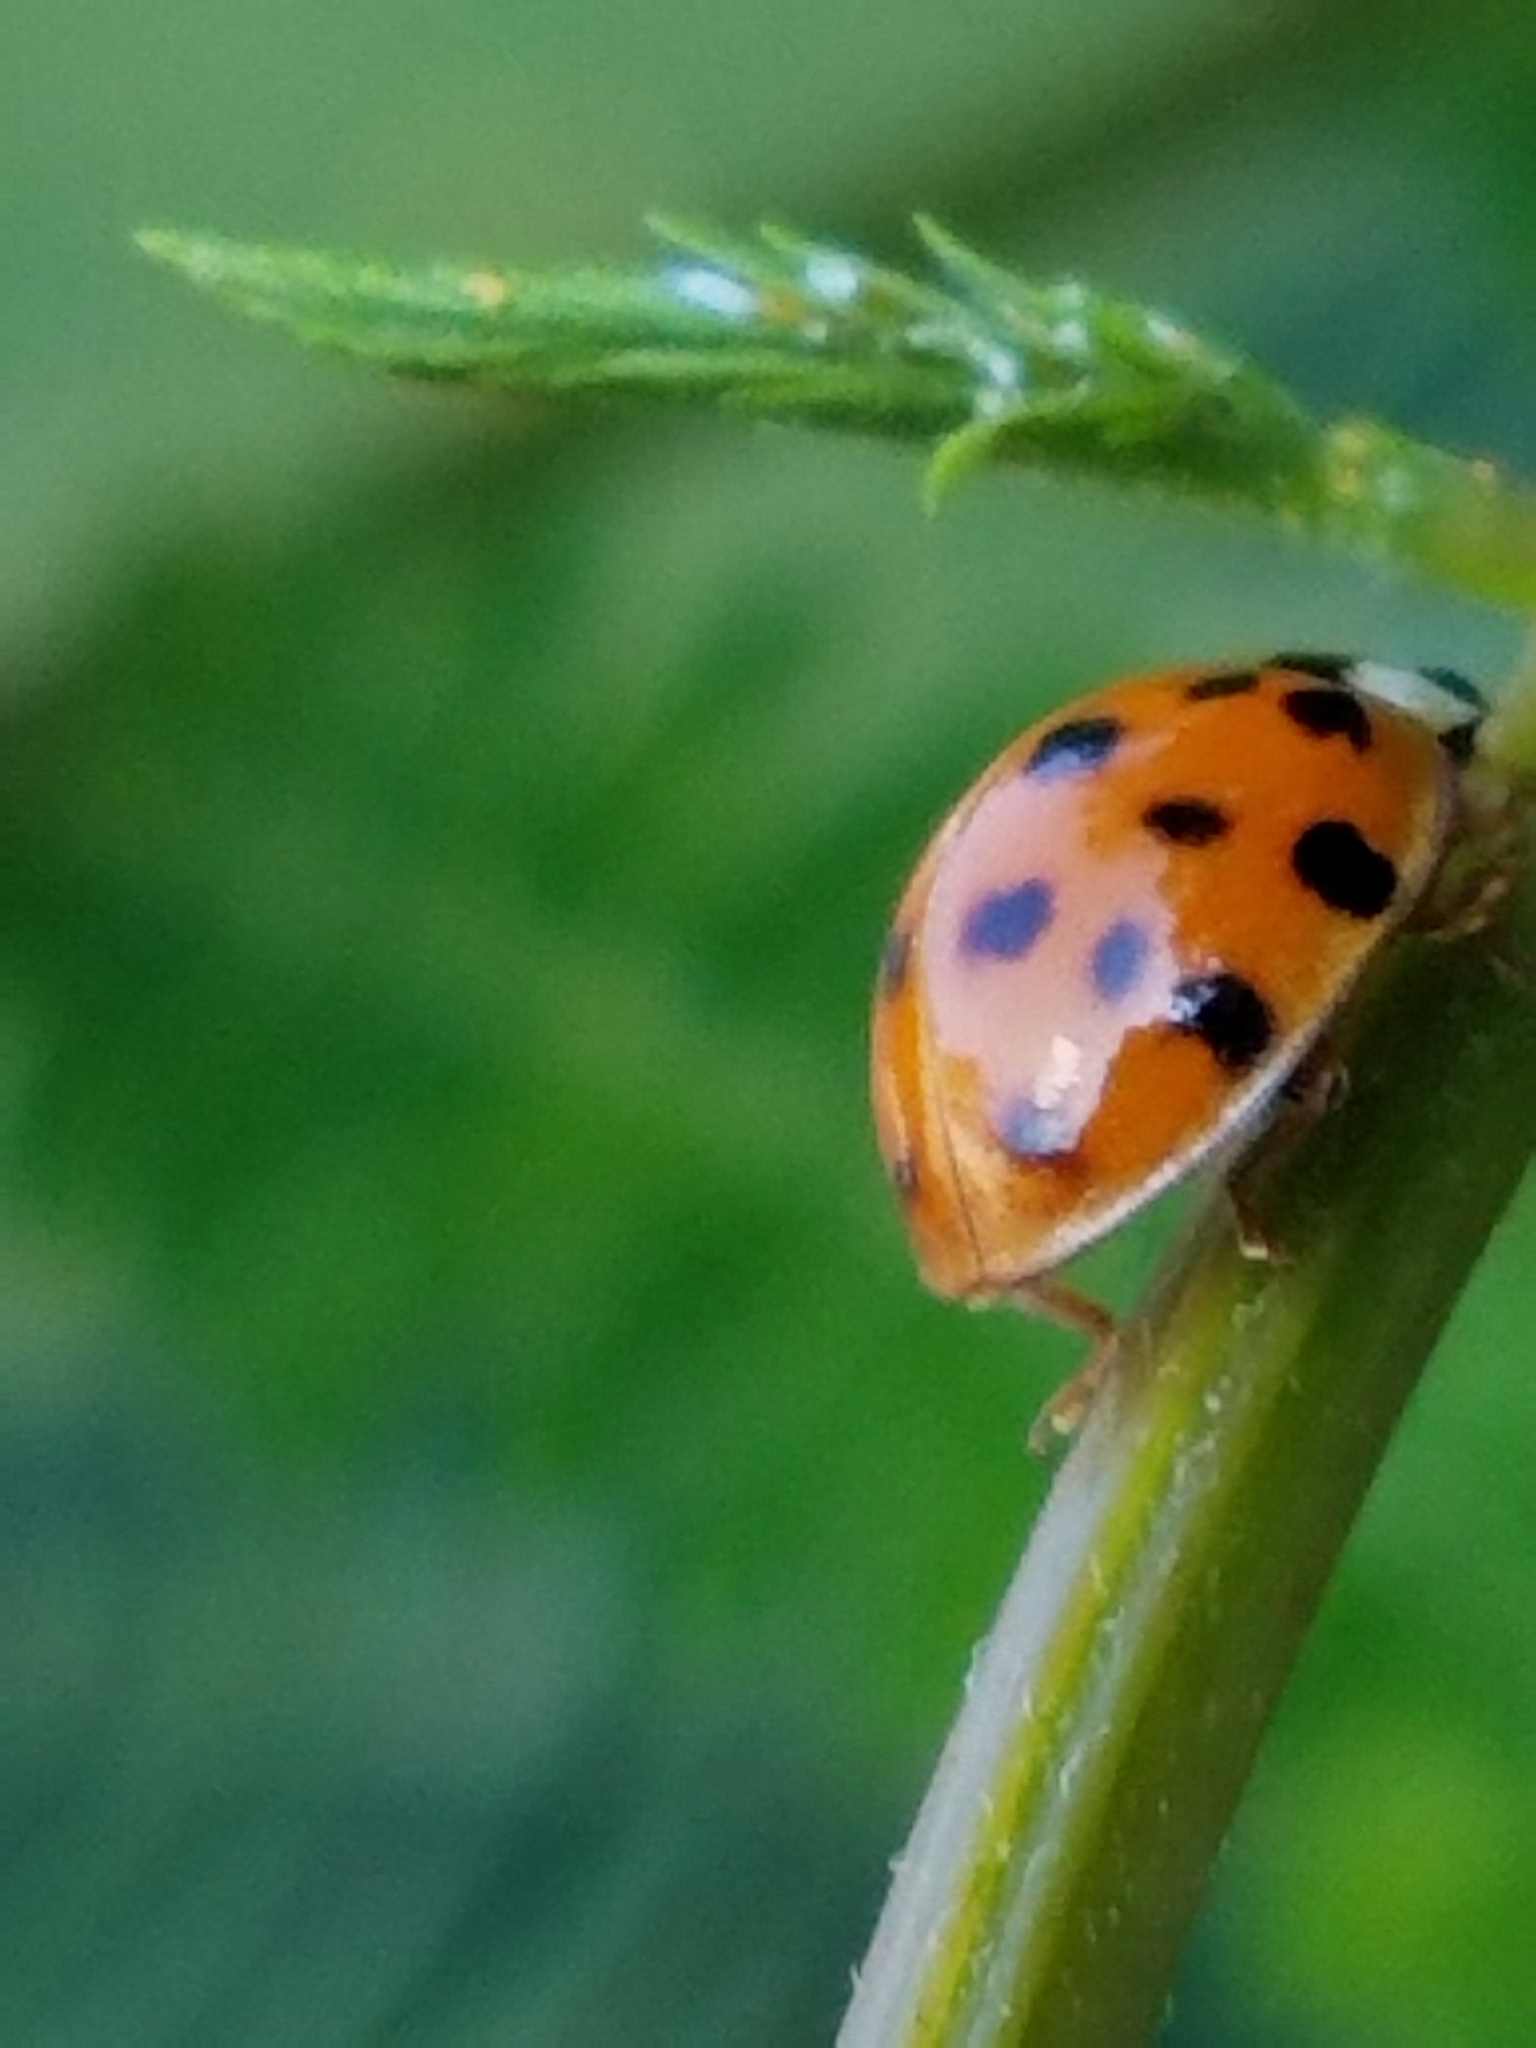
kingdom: Animalia
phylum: Arthropoda
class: Insecta
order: Coleoptera
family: Coccinellidae
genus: Harmonia
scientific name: Harmonia axyridis
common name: Harlequin ladybird
